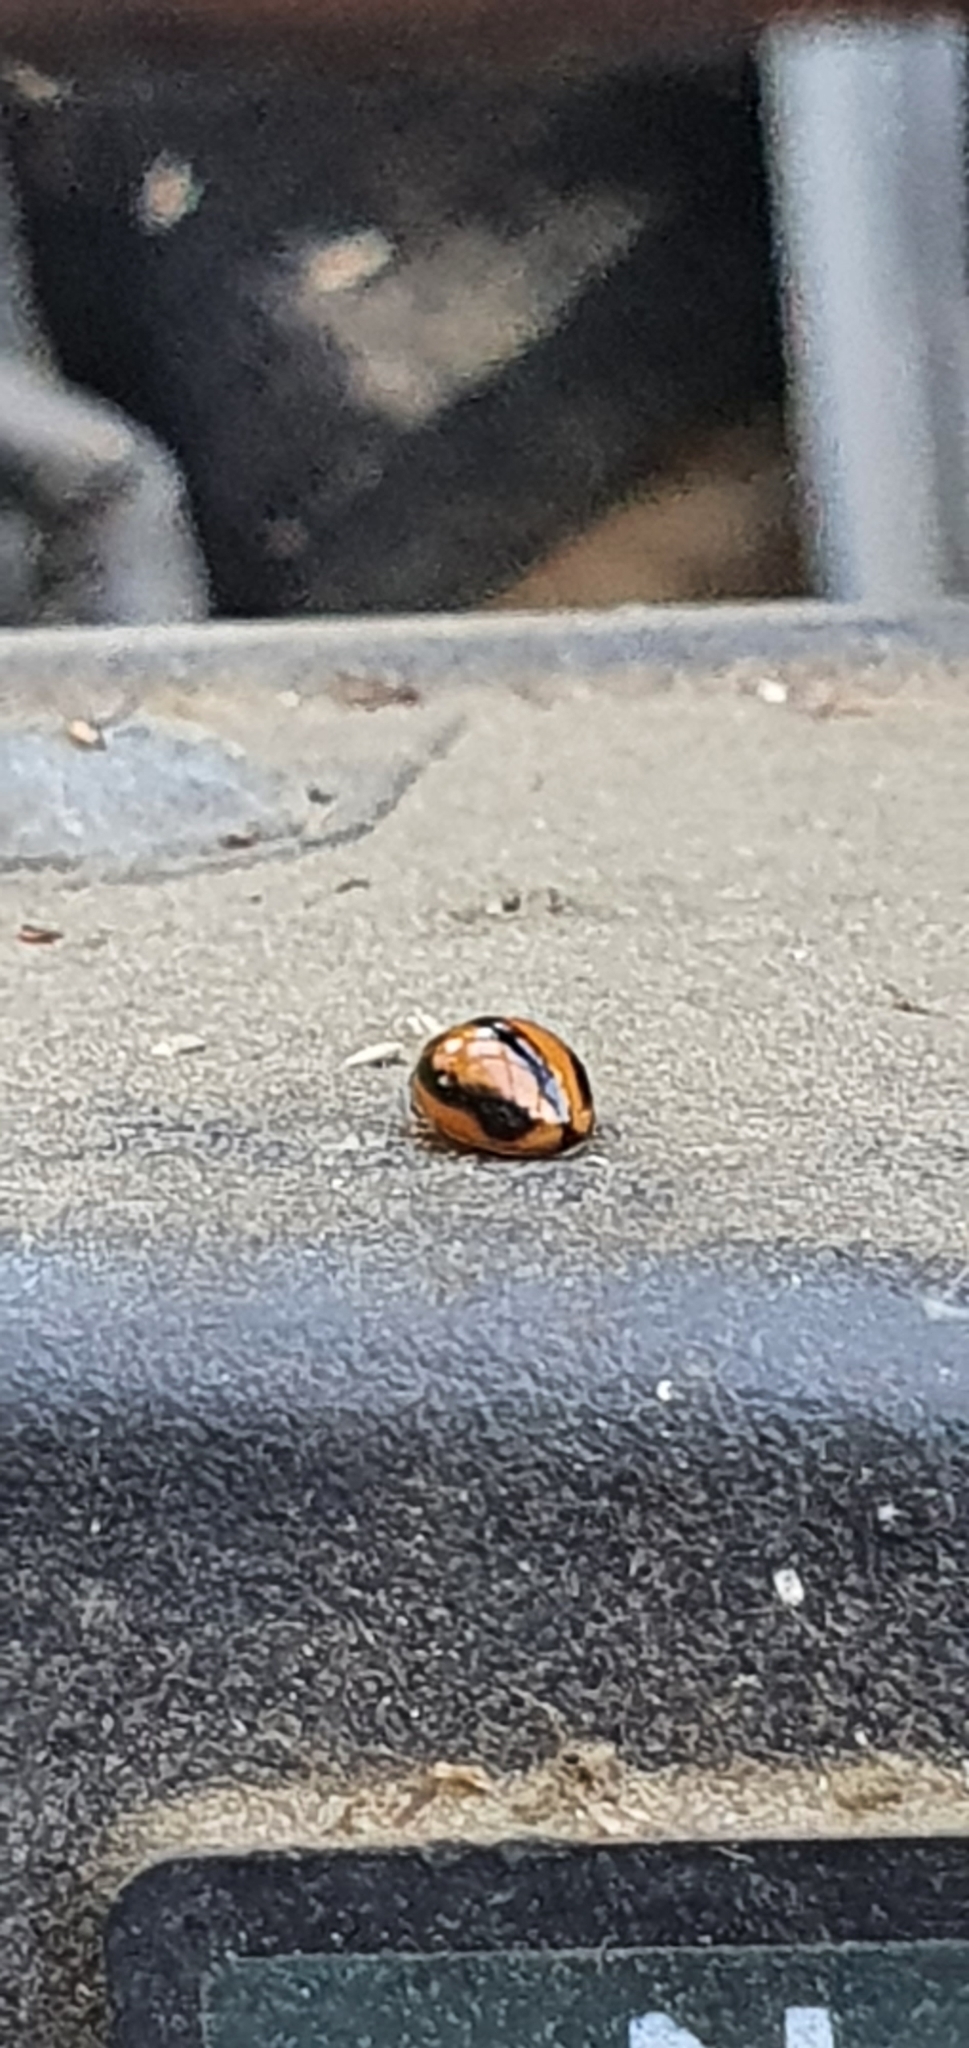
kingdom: Animalia
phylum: Arthropoda
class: Insecta
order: Coleoptera
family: Coccinellidae
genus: Micraspis
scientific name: Micraspis frenata
